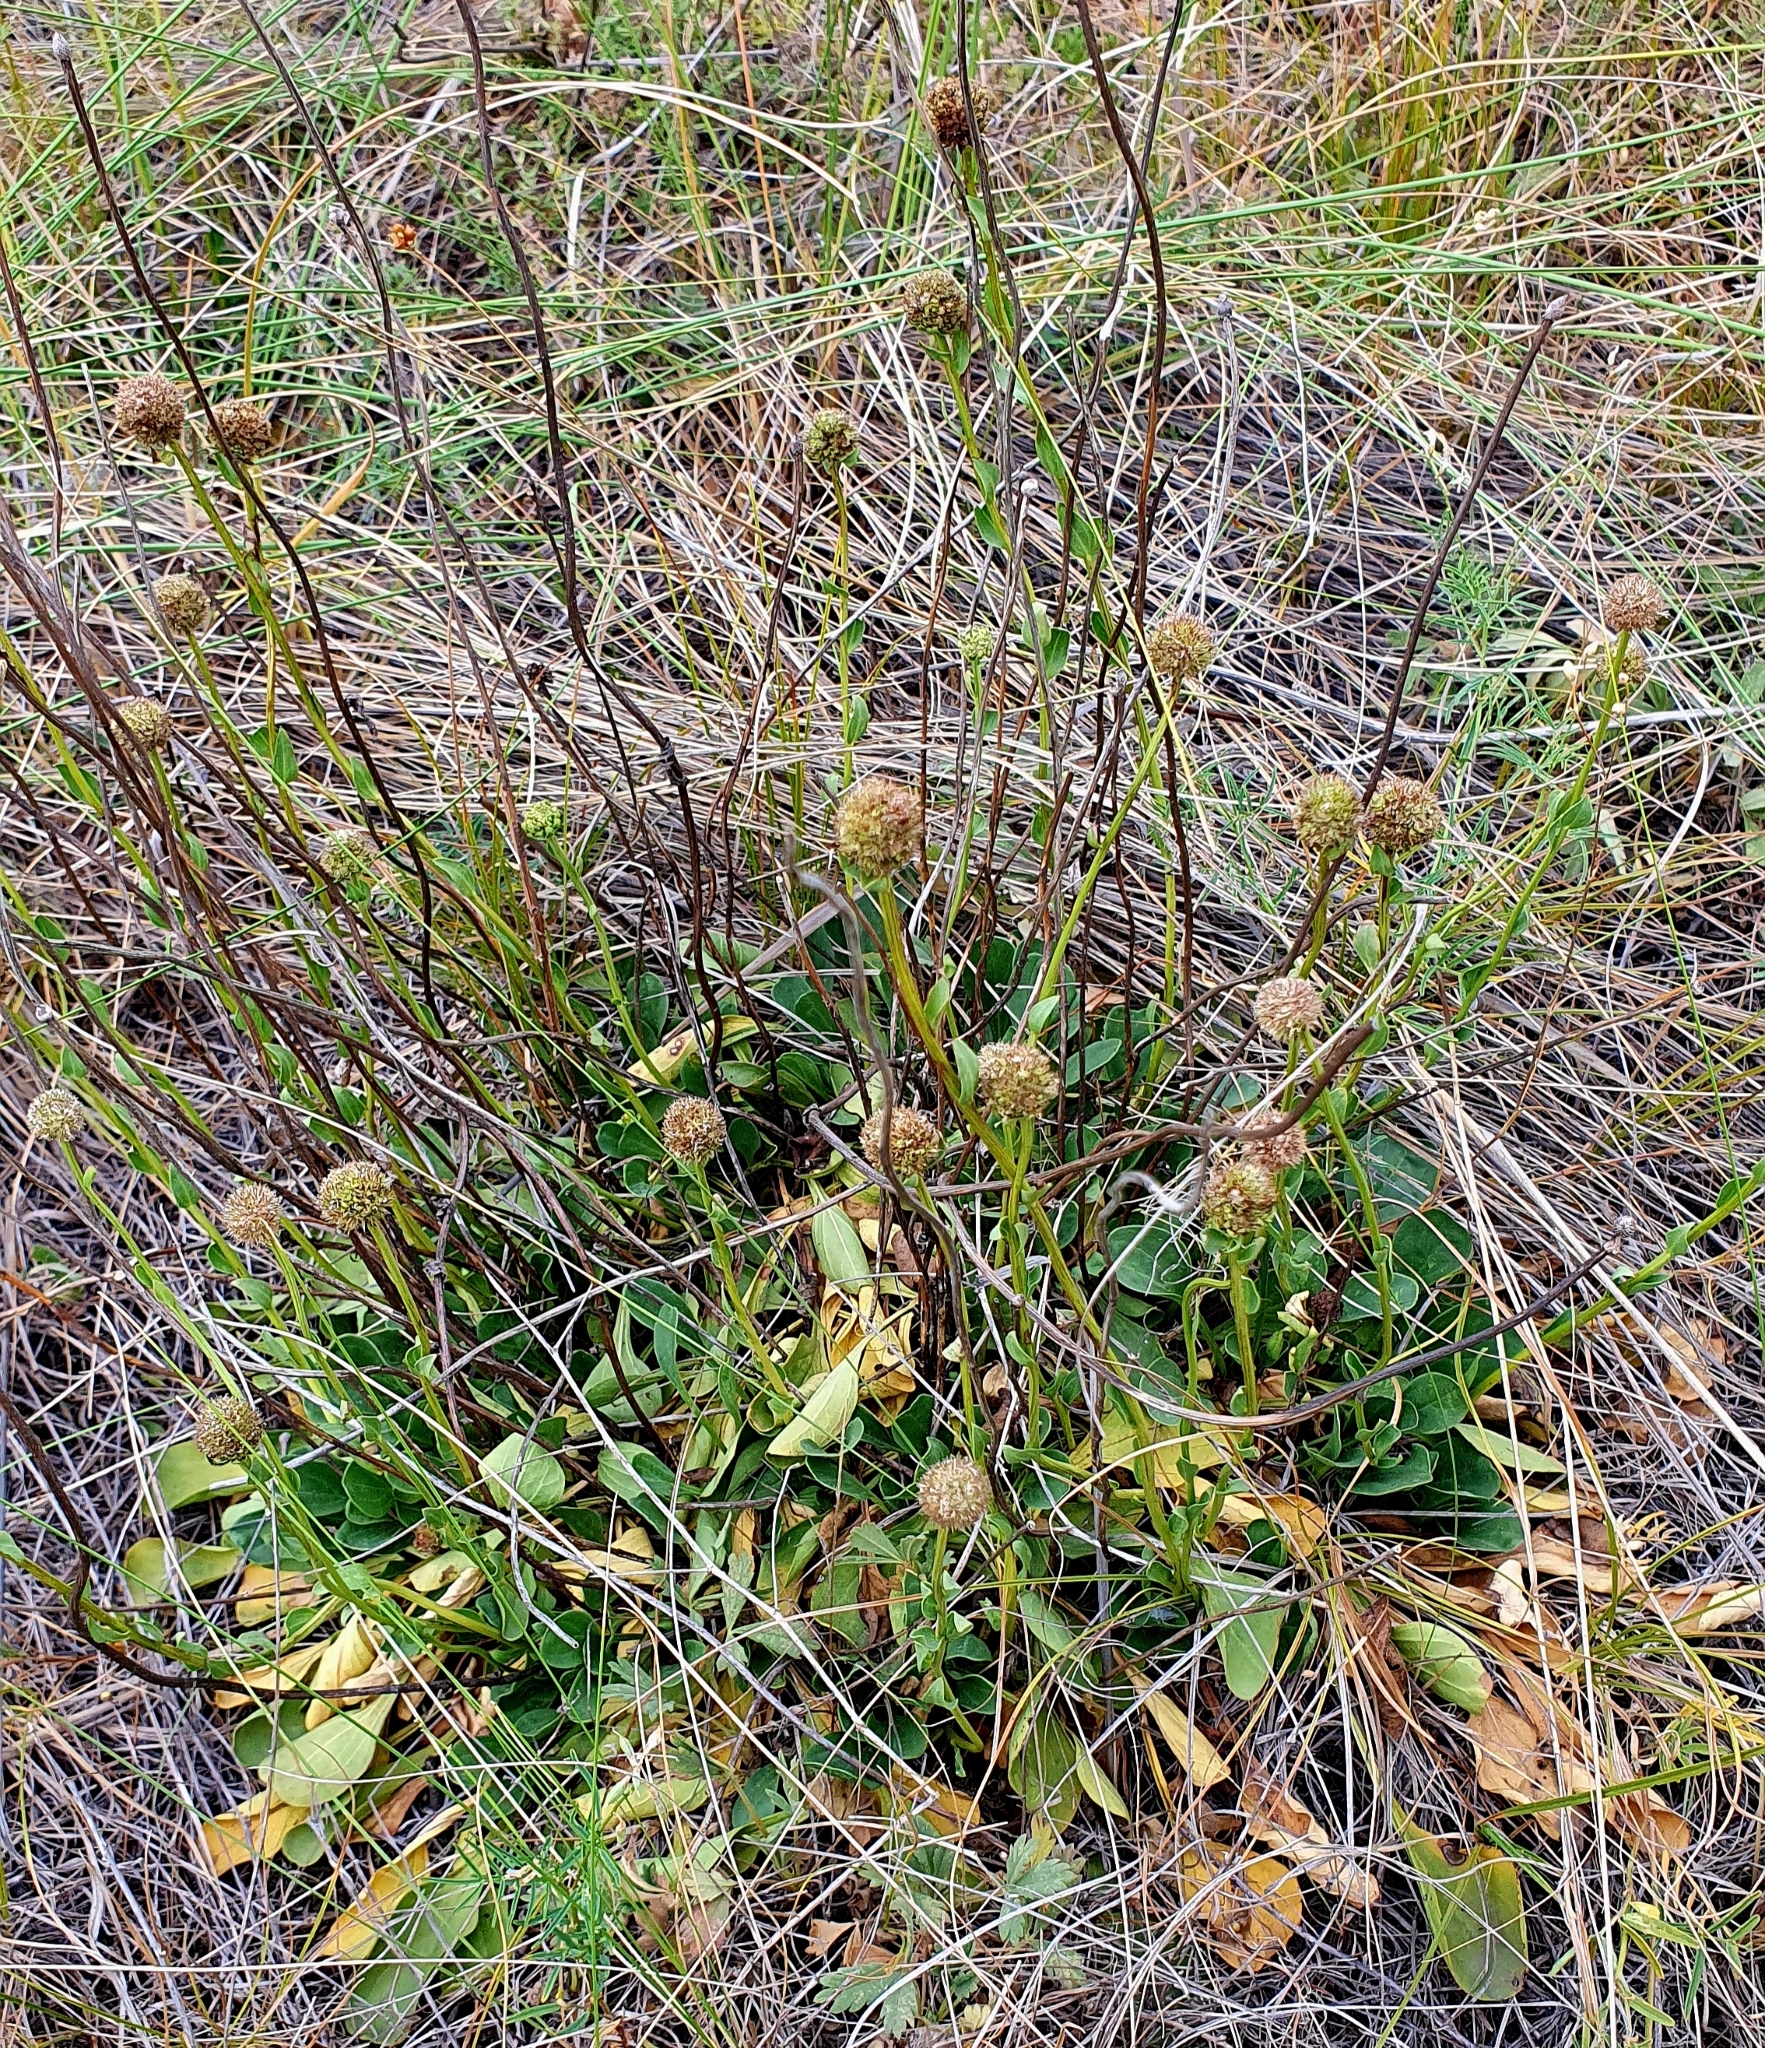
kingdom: Plantae
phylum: Tracheophyta
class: Magnoliopsida
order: Lamiales
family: Plantaginaceae
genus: Globularia
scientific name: Globularia bisnagarica
